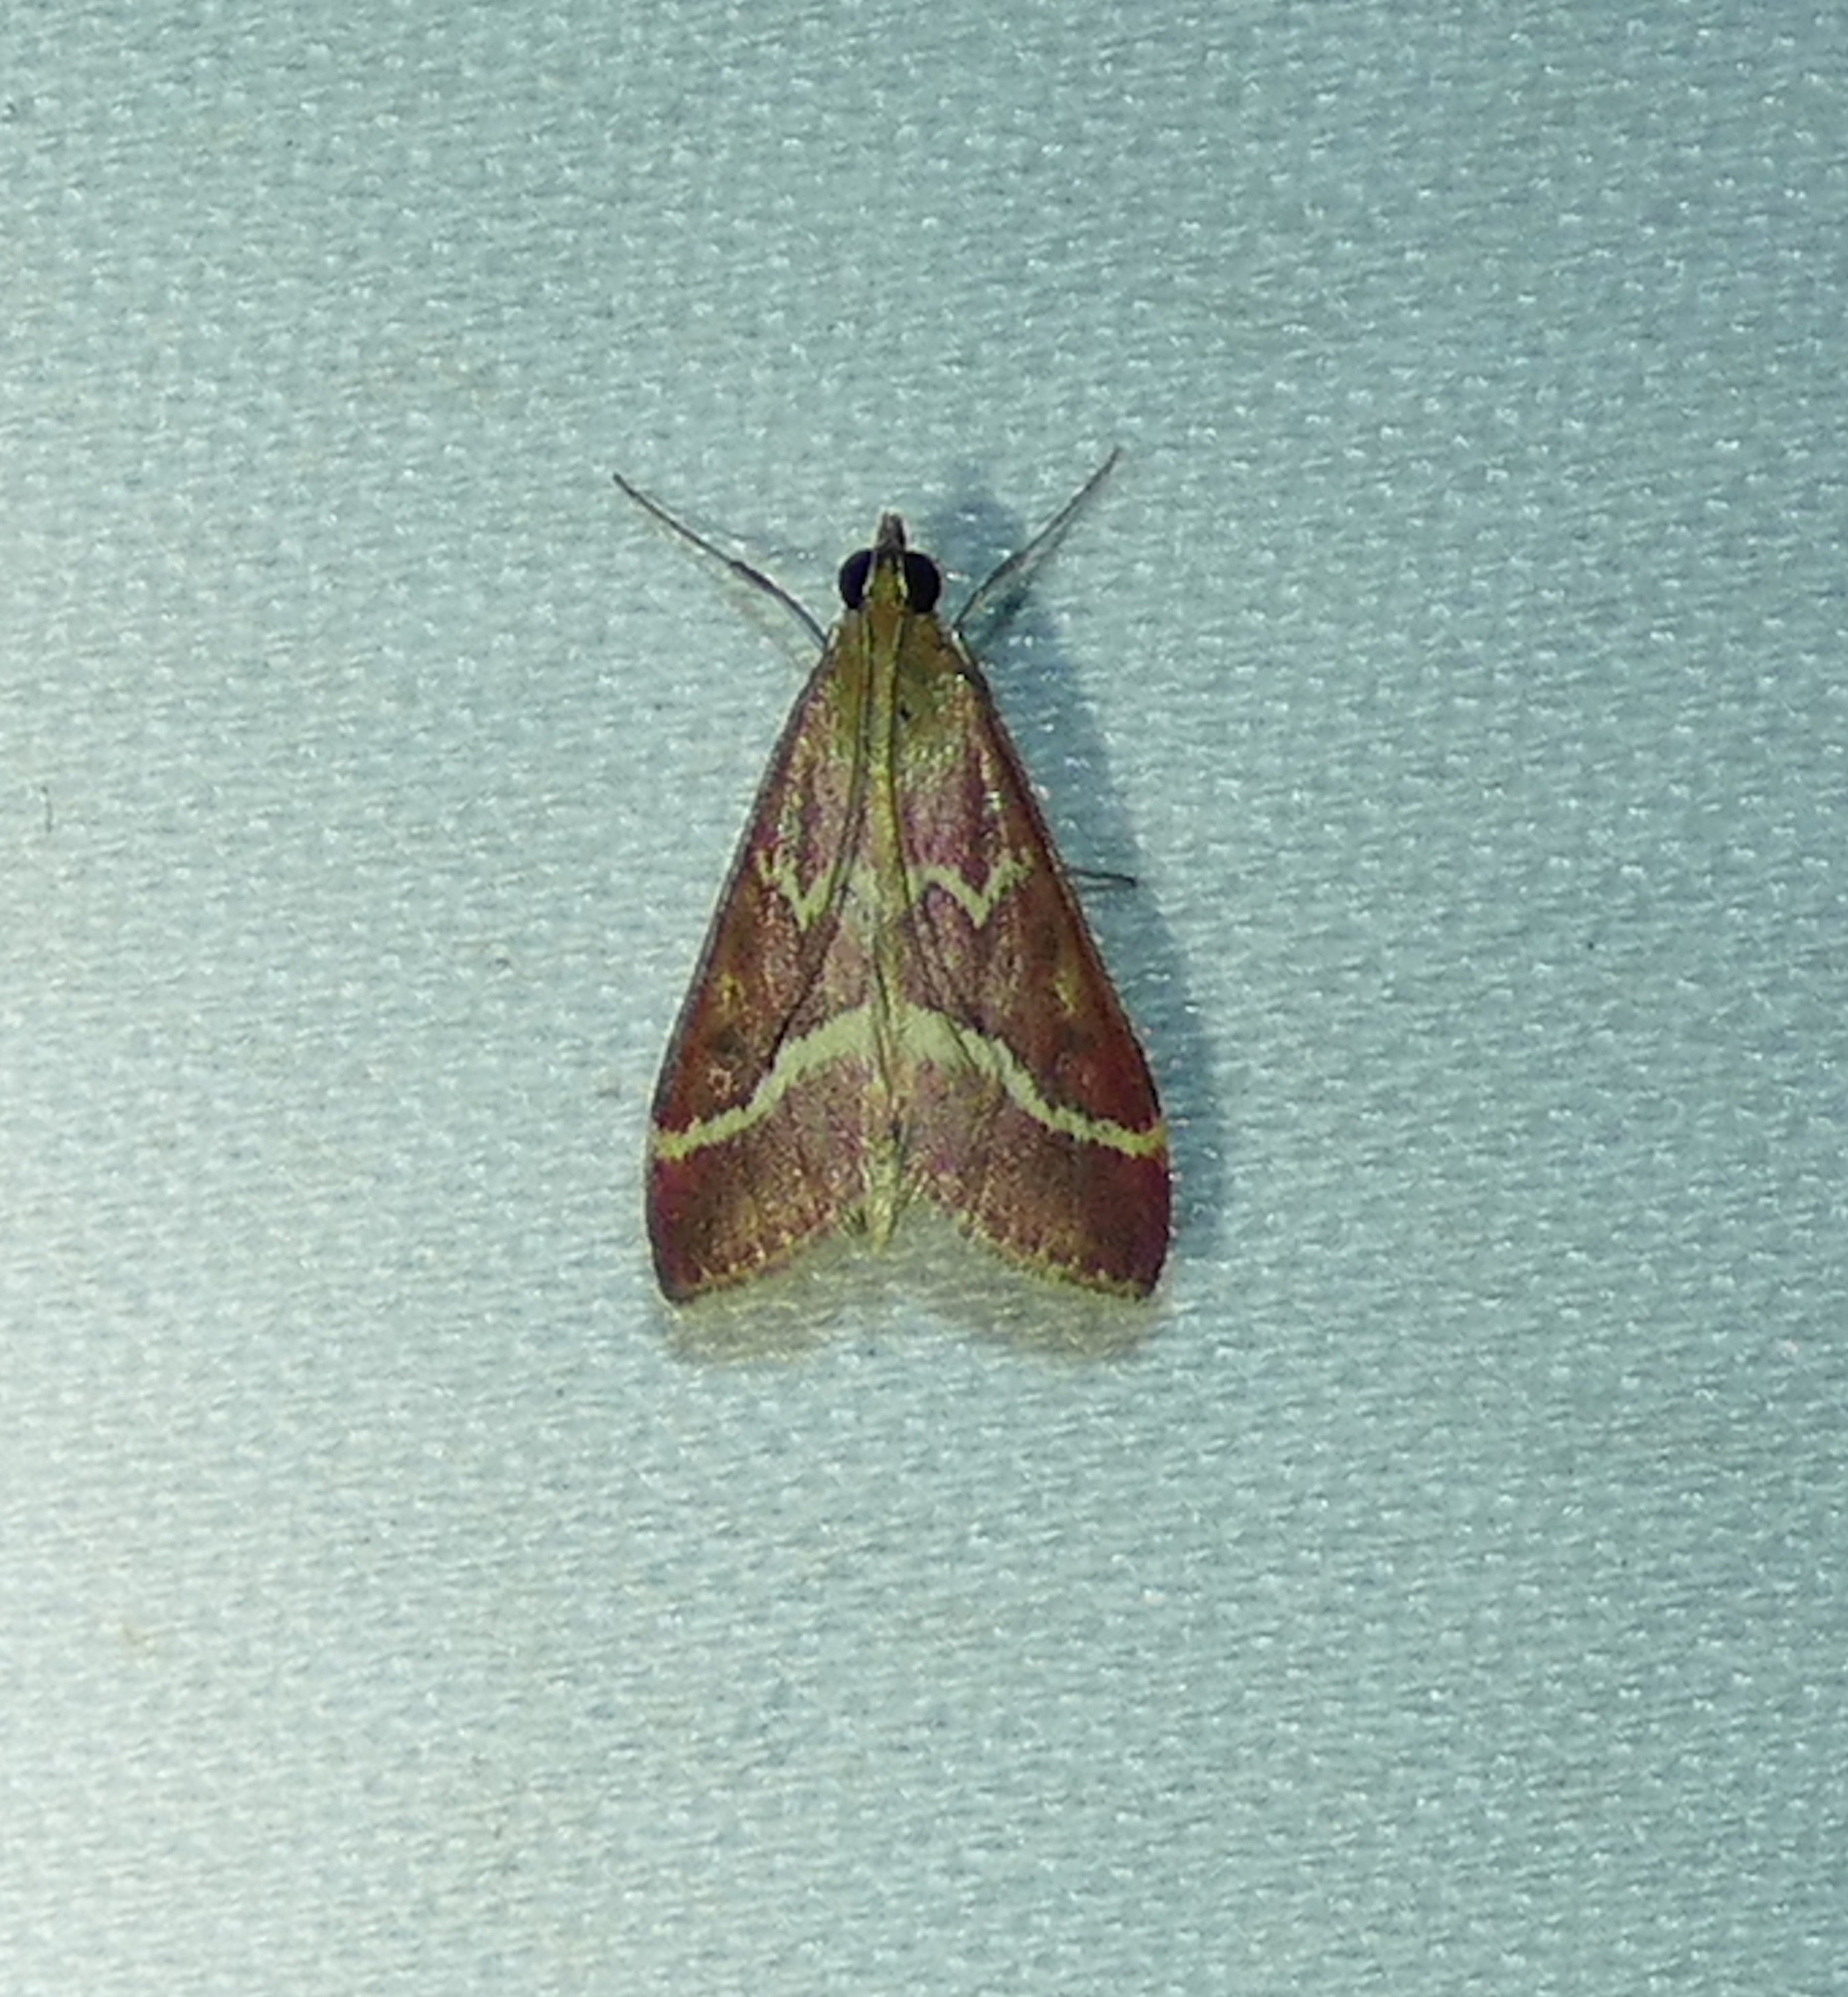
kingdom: Animalia
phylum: Arthropoda
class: Insecta
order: Lepidoptera
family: Crambidae
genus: Pyrausta
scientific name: Pyrausta volupialis
